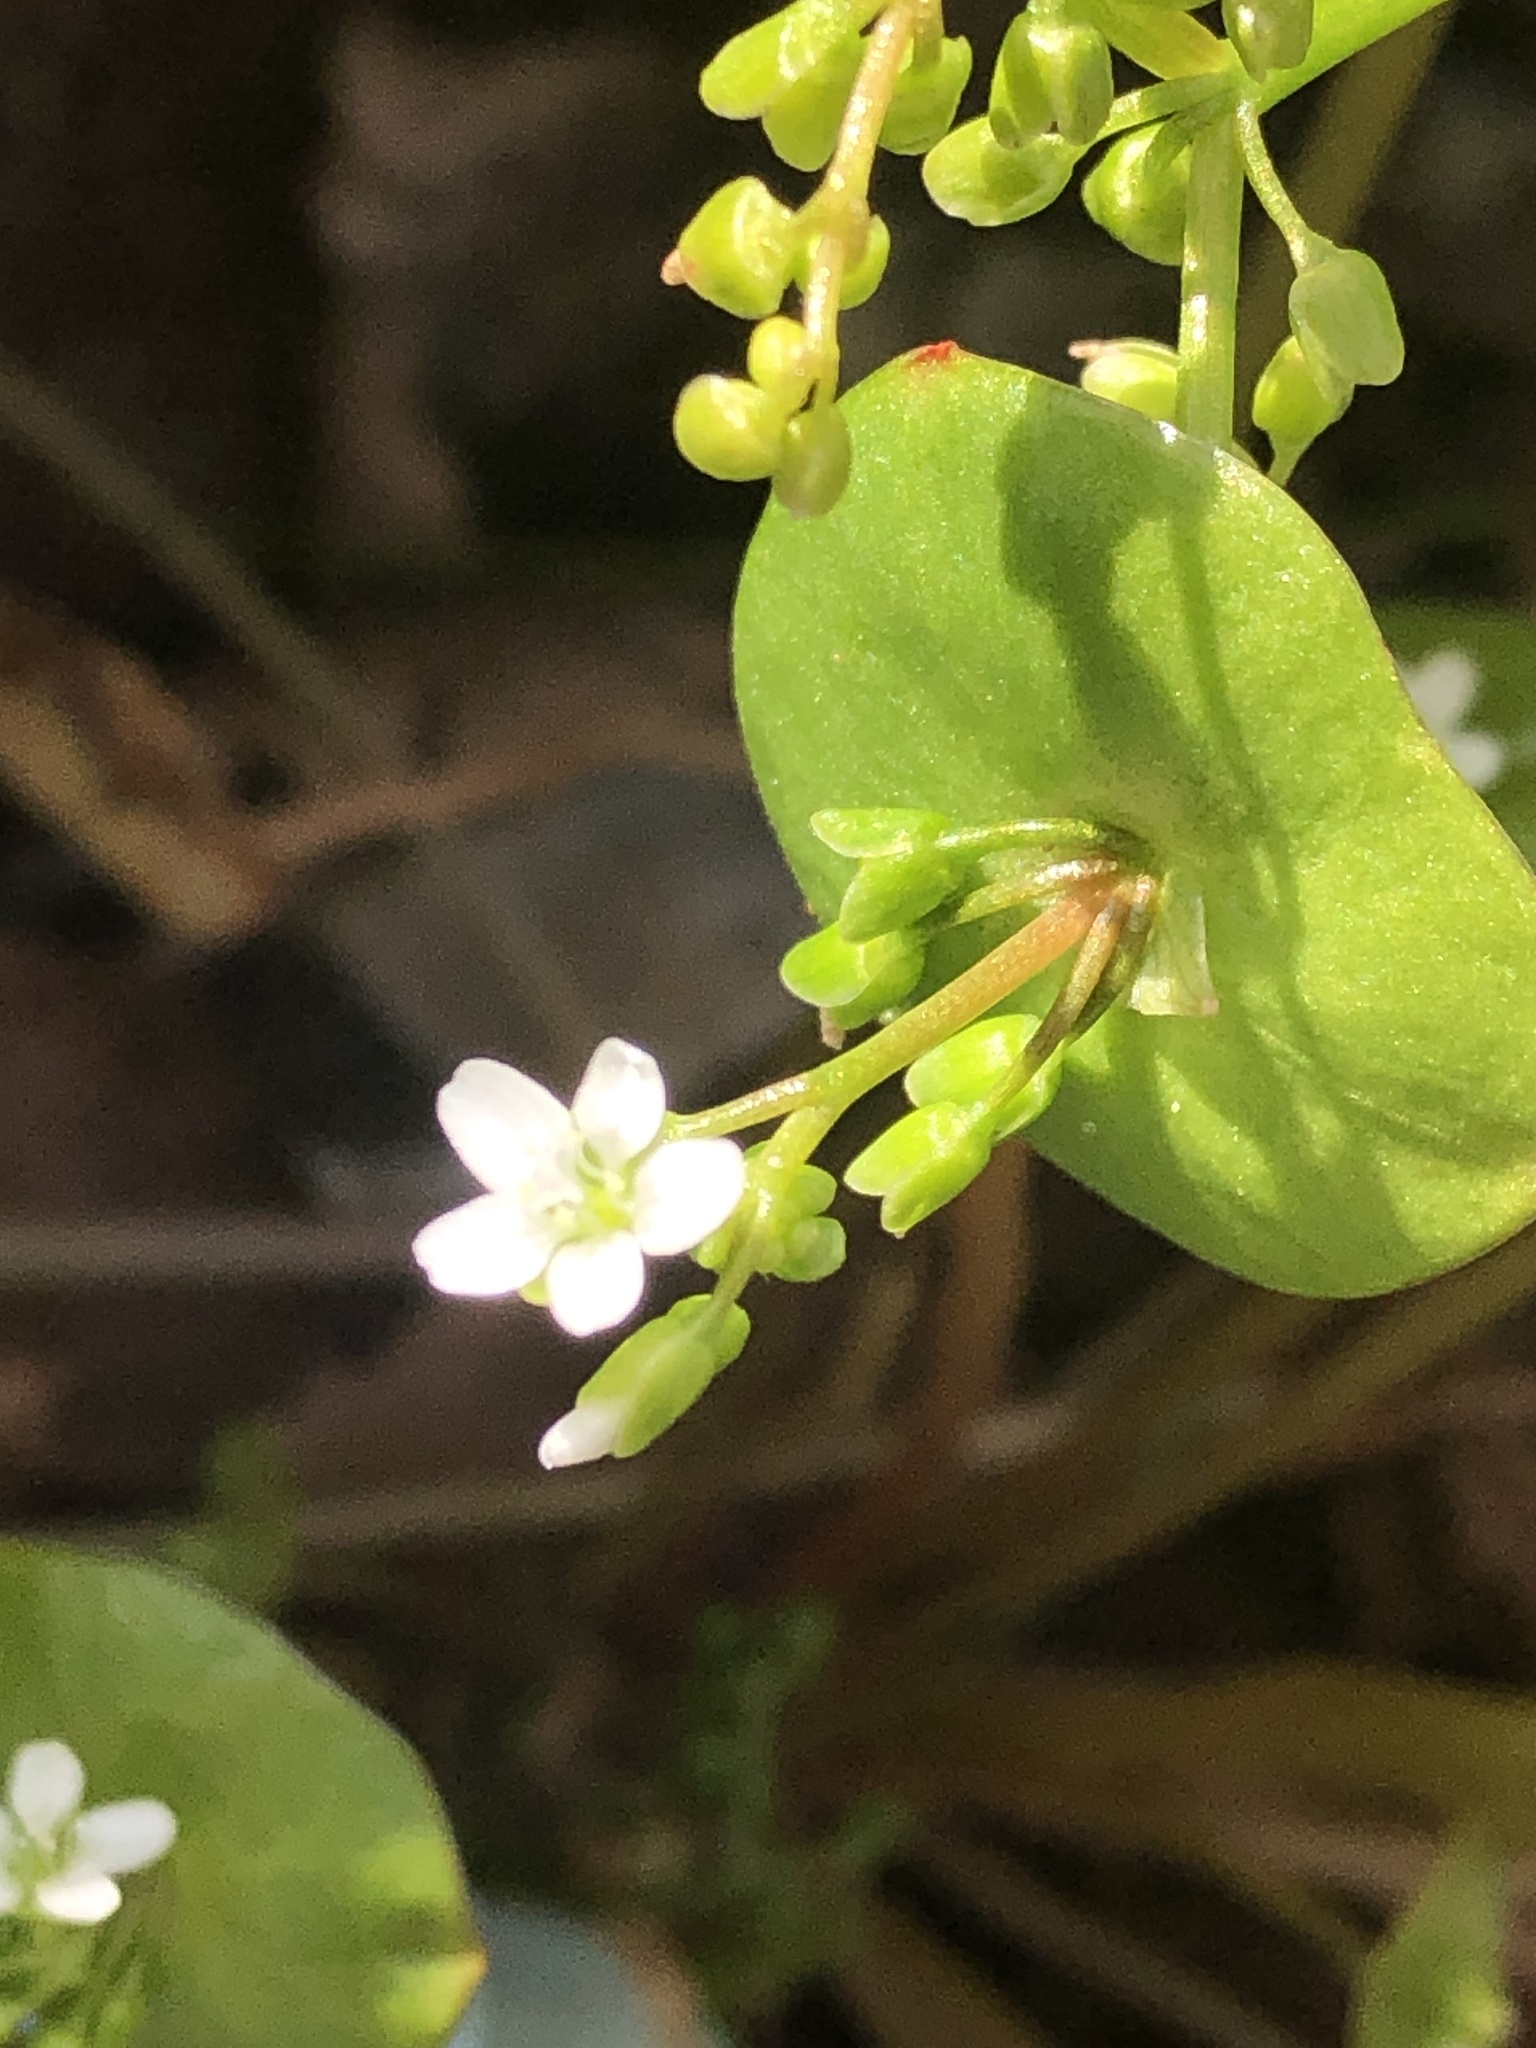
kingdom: Plantae
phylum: Tracheophyta
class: Magnoliopsida
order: Caryophyllales
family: Montiaceae
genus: Claytonia
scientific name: Claytonia perfoliata
